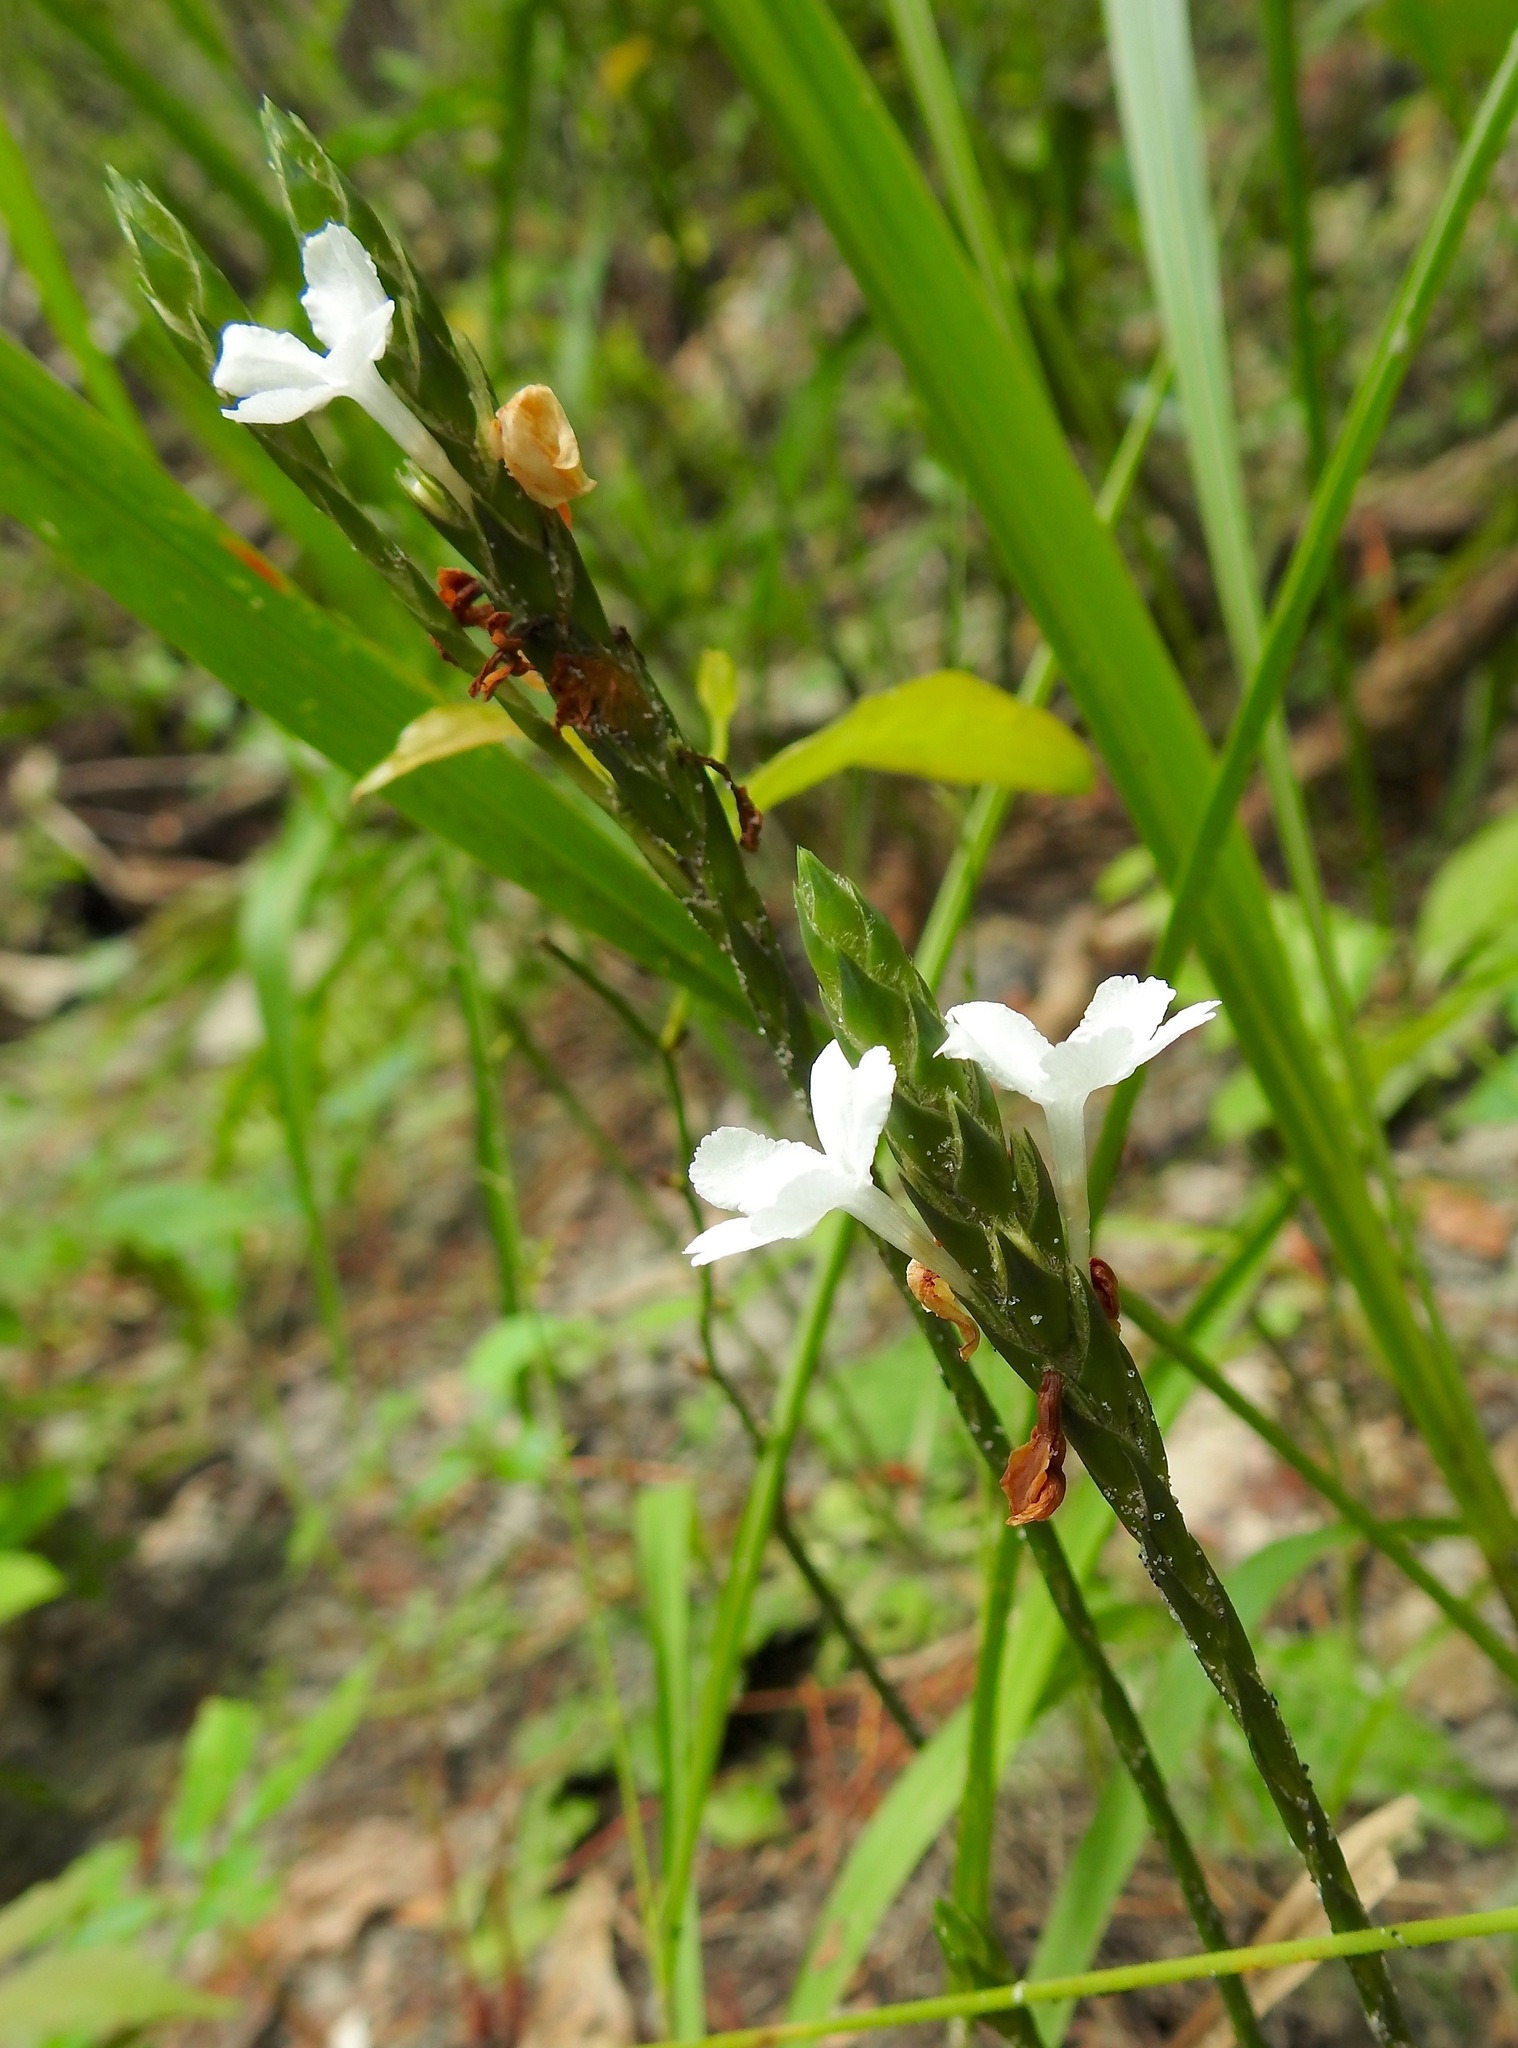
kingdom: Plantae
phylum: Tracheophyta
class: Magnoliopsida
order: Lamiales
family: Acanthaceae
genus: Elytraria
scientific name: Elytraria caroliniensis
